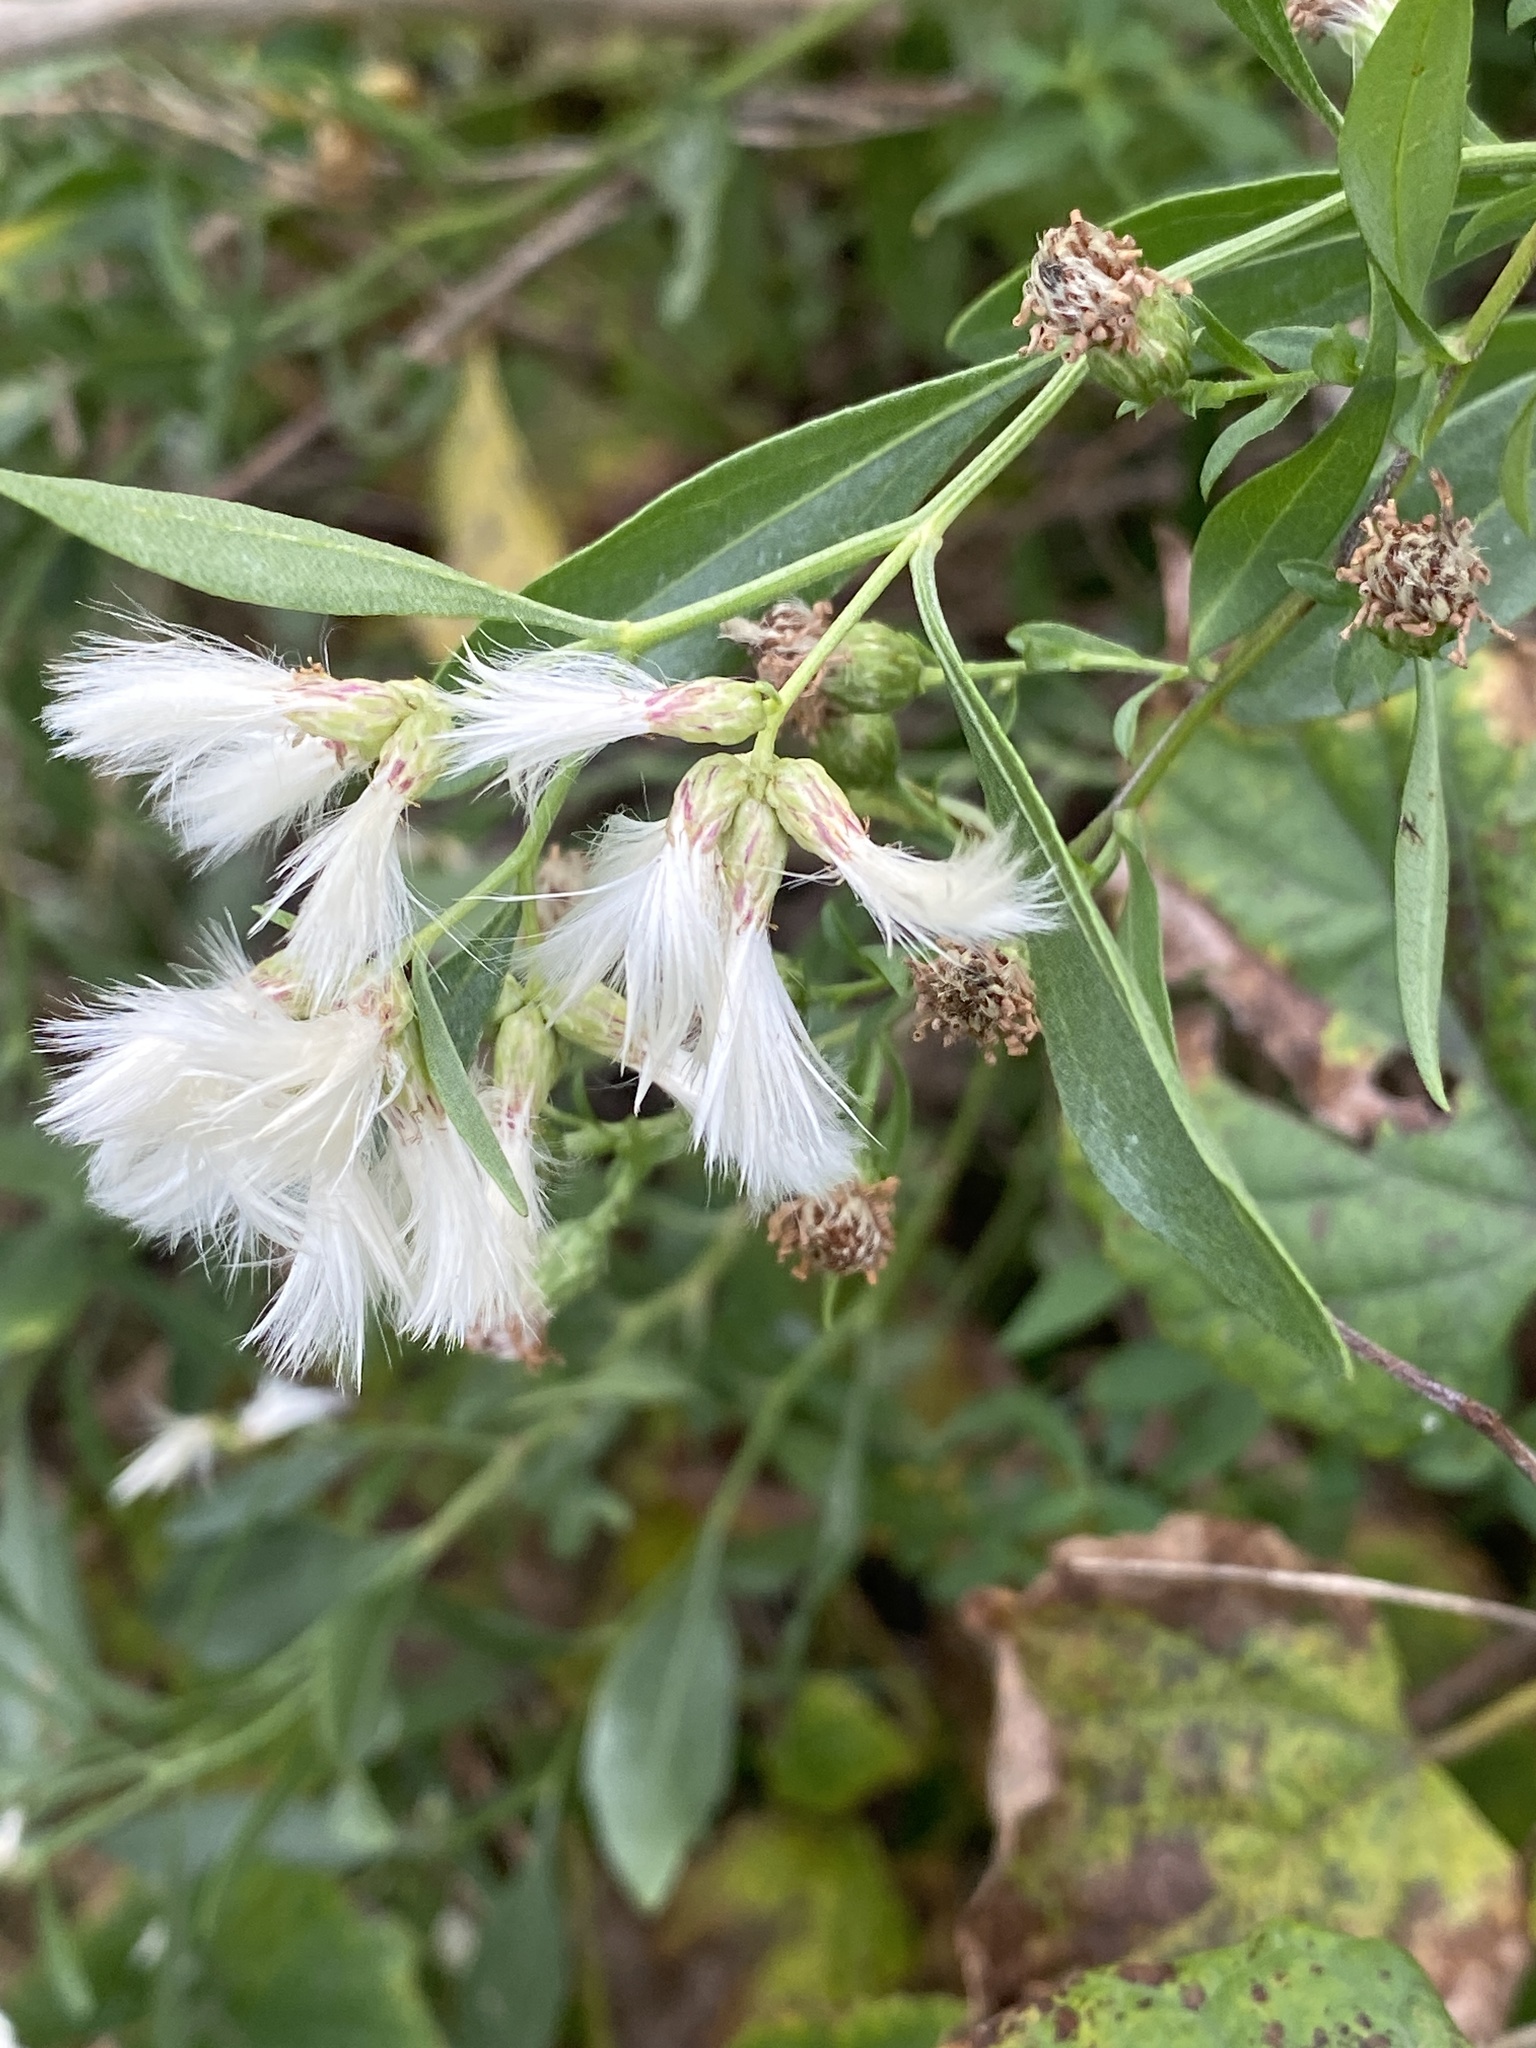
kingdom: Plantae
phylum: Tracheophyta
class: Magnoliopsida
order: Asterales
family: Asteraceae
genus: Baccharis
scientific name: Baccharis halimifolia
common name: Eastern baccharis
